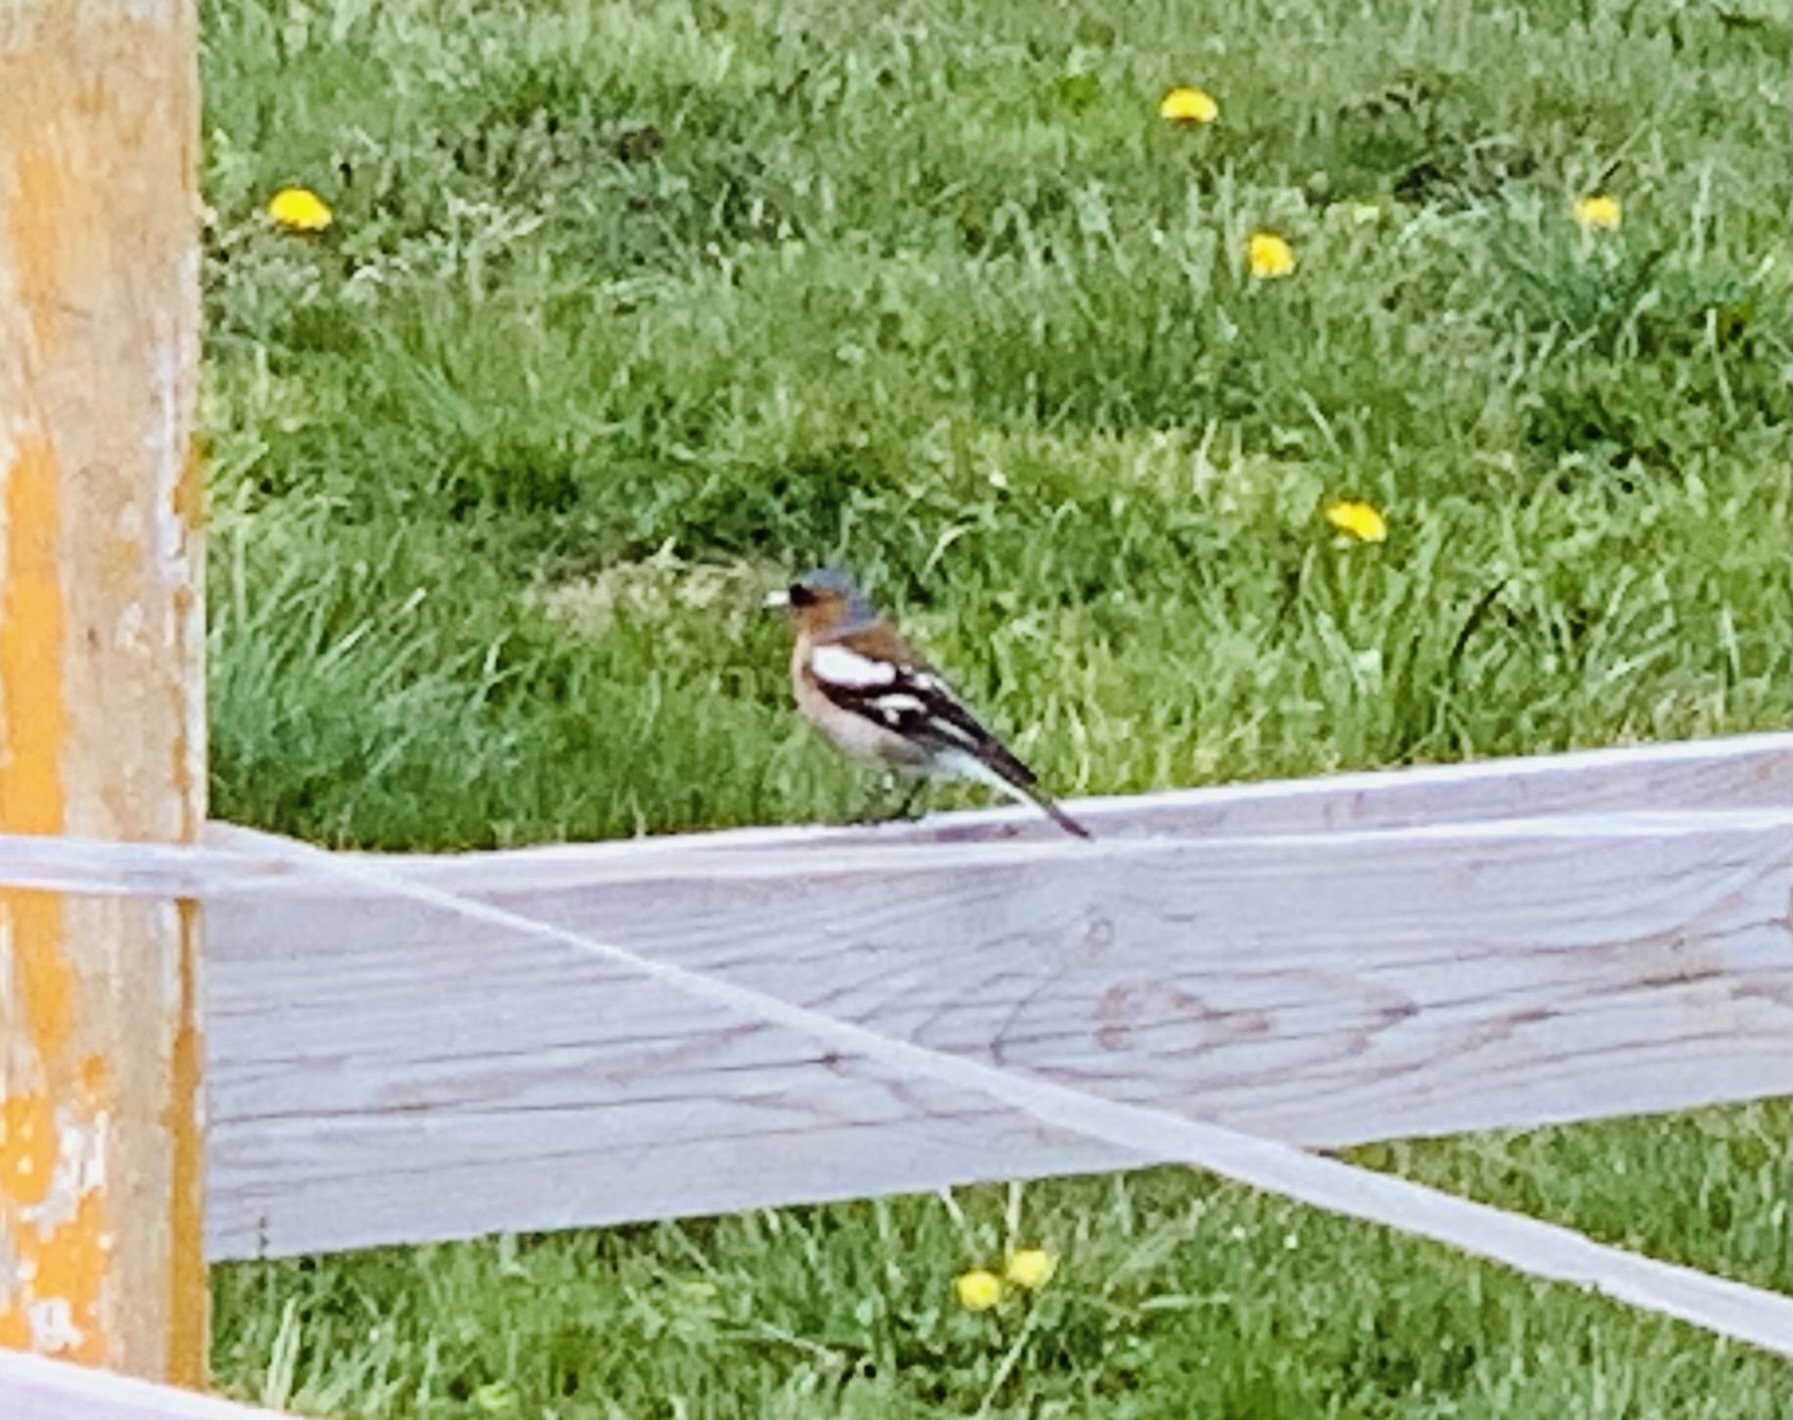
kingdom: Animalia
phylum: Chordata
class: Aves
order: Passeriformes
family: Fringillidae
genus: Fringilla
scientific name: Fringilla coelebs
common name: Common chaffinch
